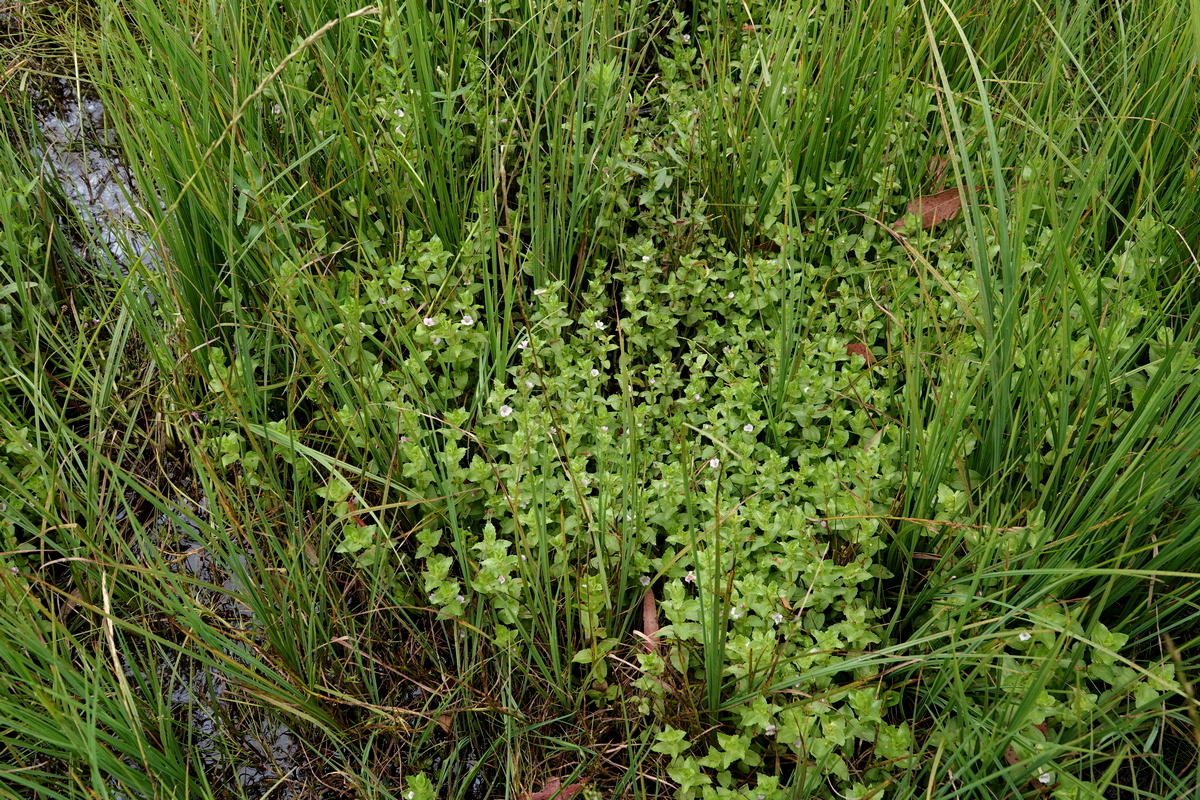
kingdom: Plantae
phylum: Tracheophyta
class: Magnoliopsida
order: Lamiales
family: Plantaginaceae
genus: Gratiola
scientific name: Gratiola peruviana
